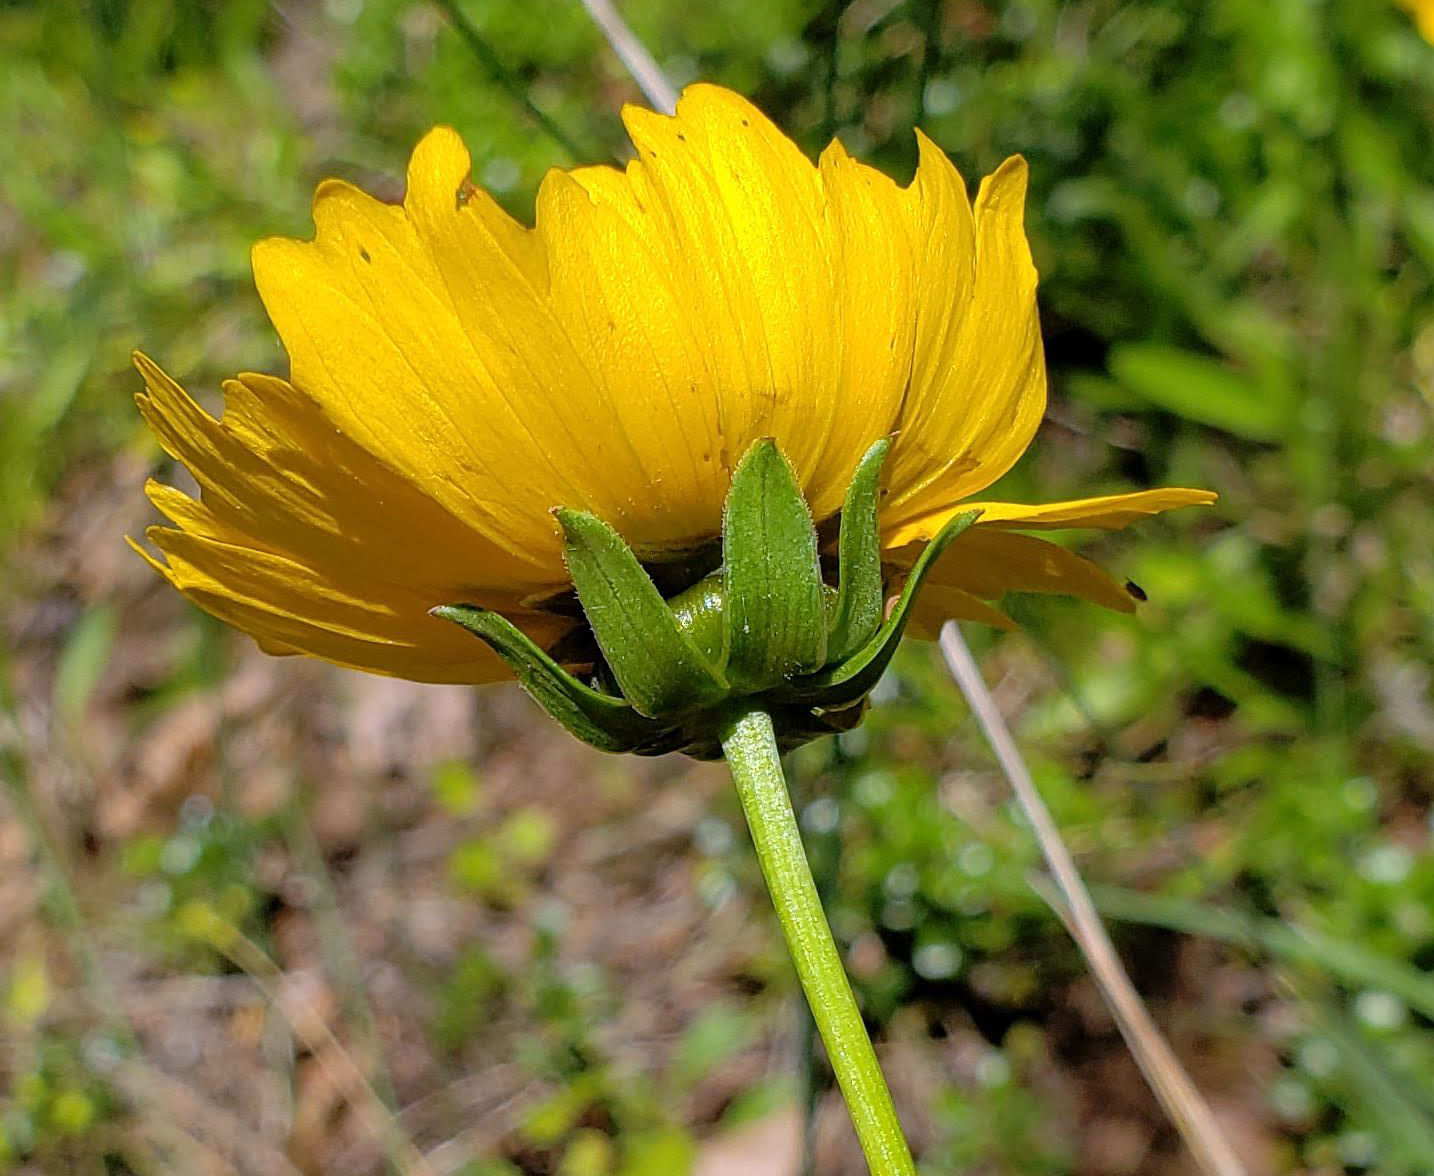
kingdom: Plantae
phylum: Tracheophyta
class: Magnoliopsida
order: Asterales
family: Asteraceae
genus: Coreopsis
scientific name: Coreopsis lanceolata
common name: Garden coreopsis
